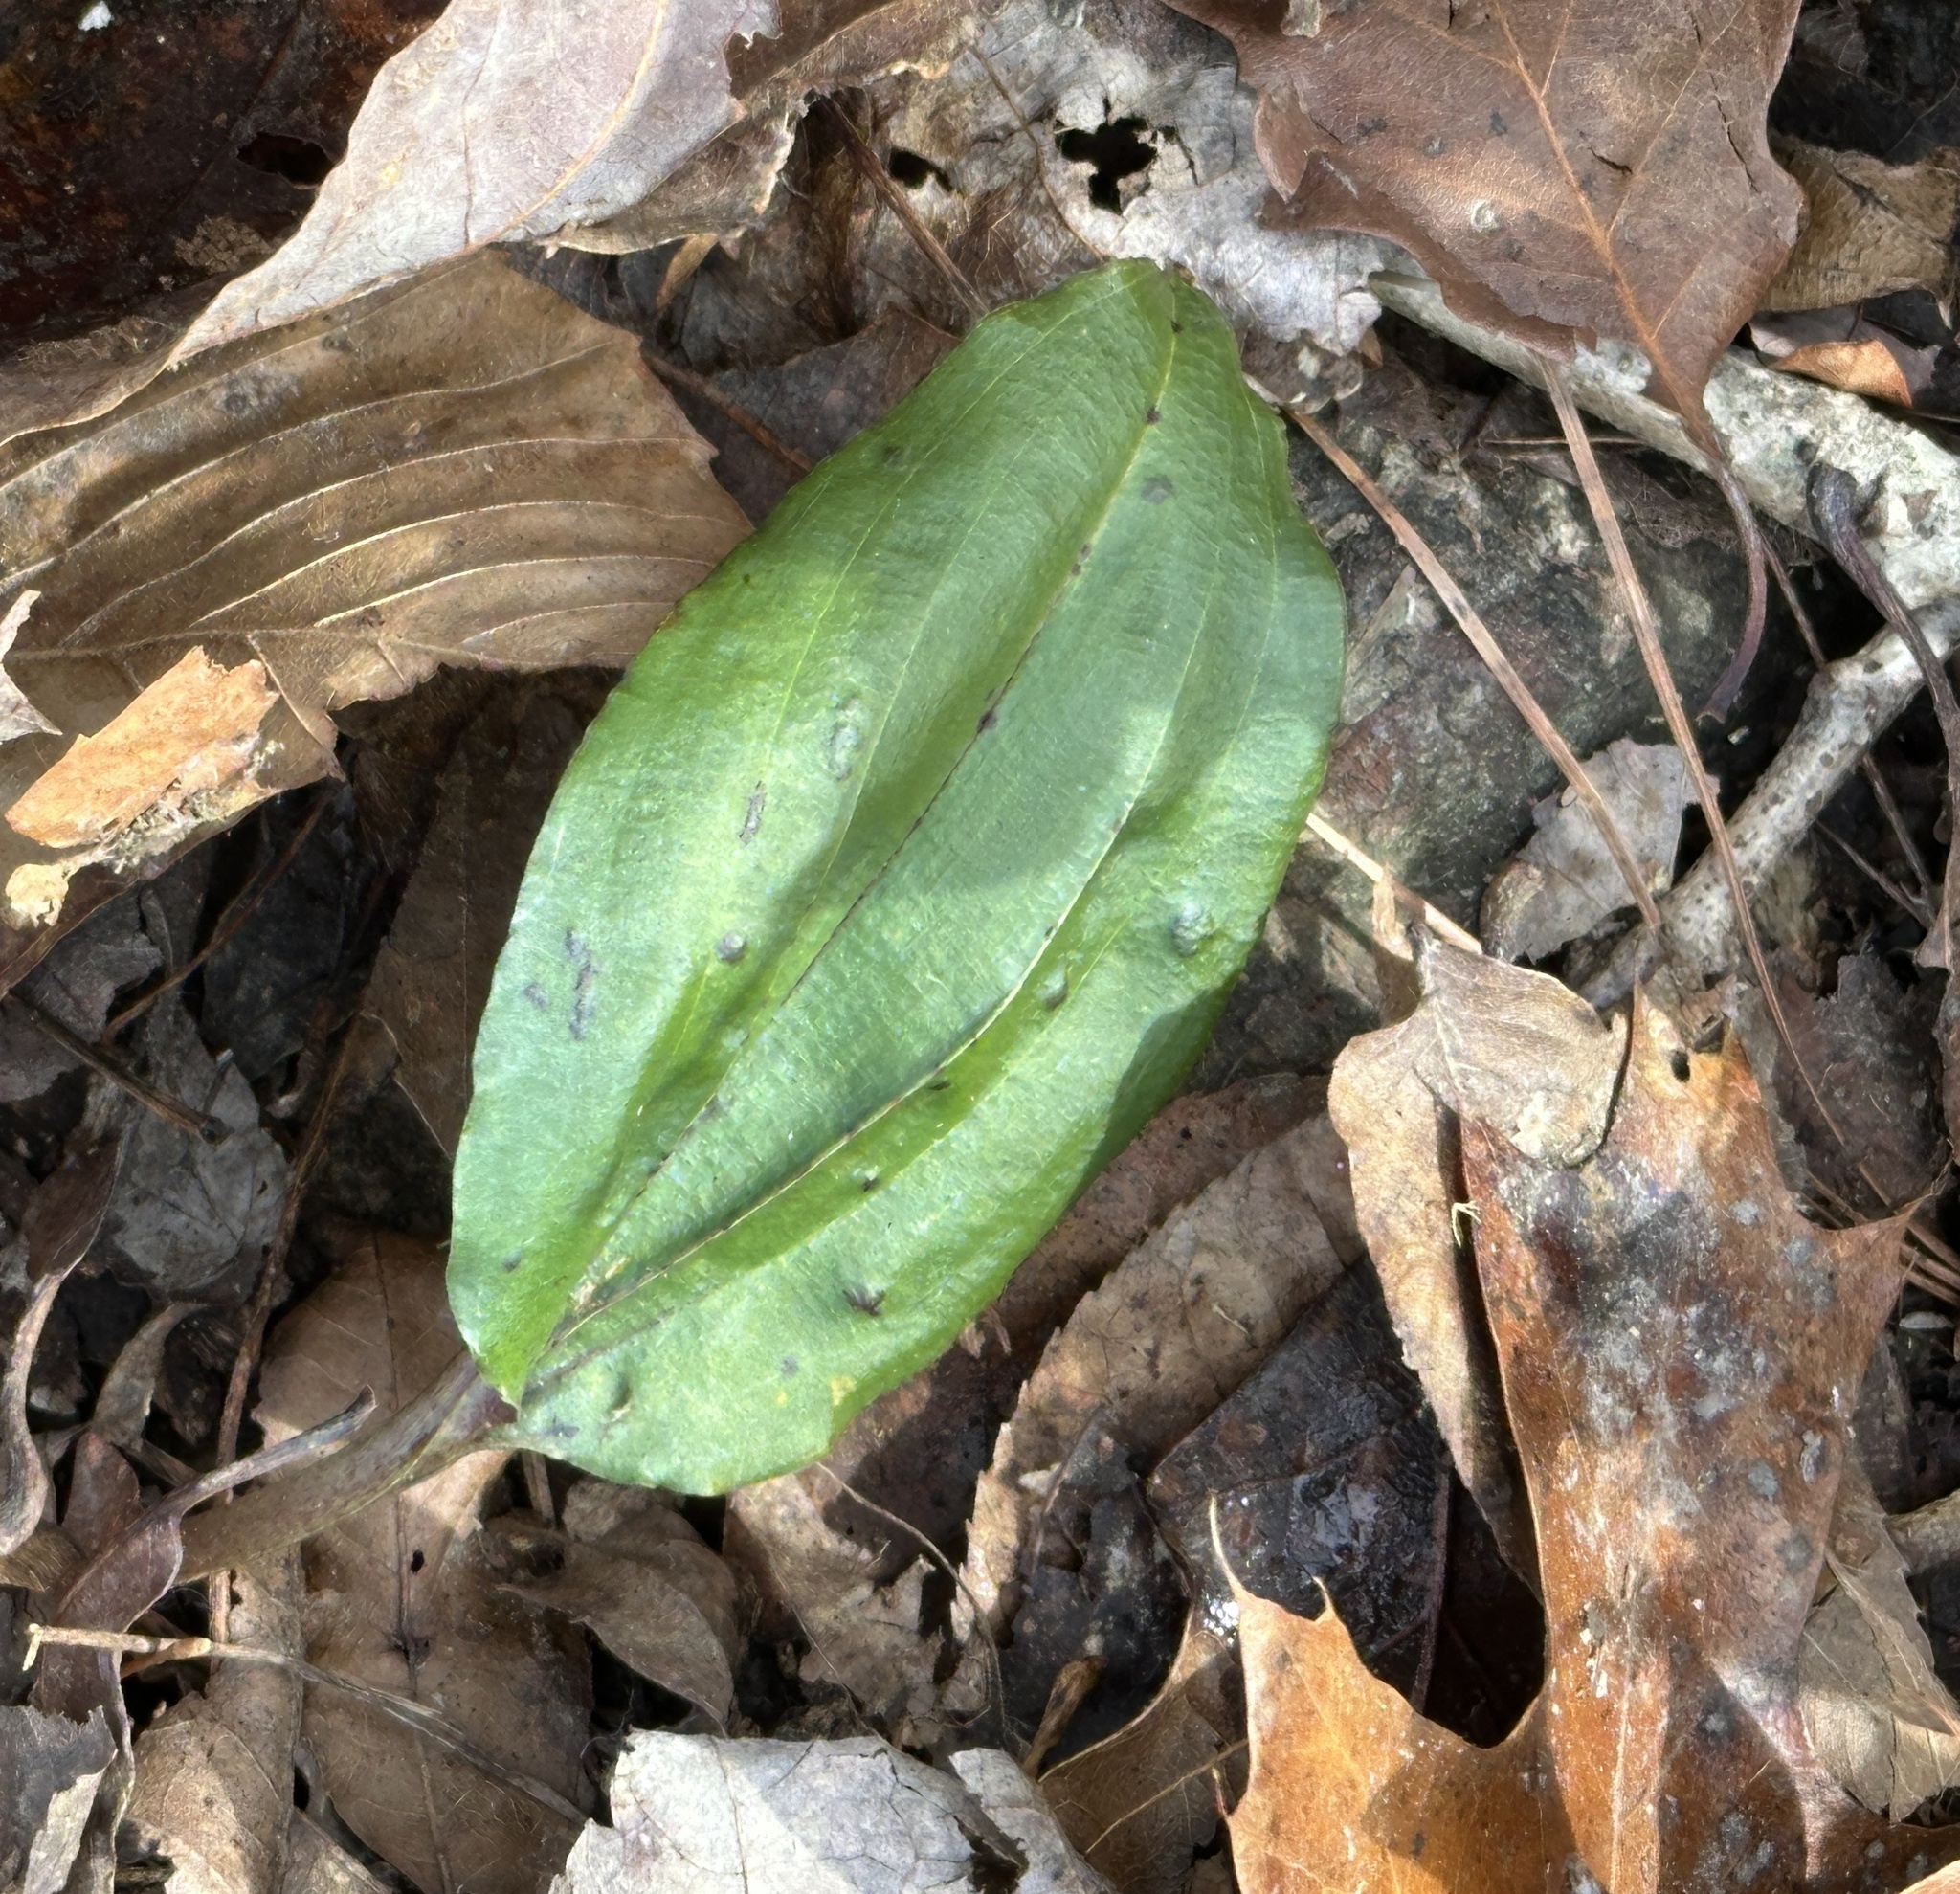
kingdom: Plantae
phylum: Tracheophyta
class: Liliopsida
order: Asparagales
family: Orchidaceae
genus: Tipularia
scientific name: Tipularia discolor
